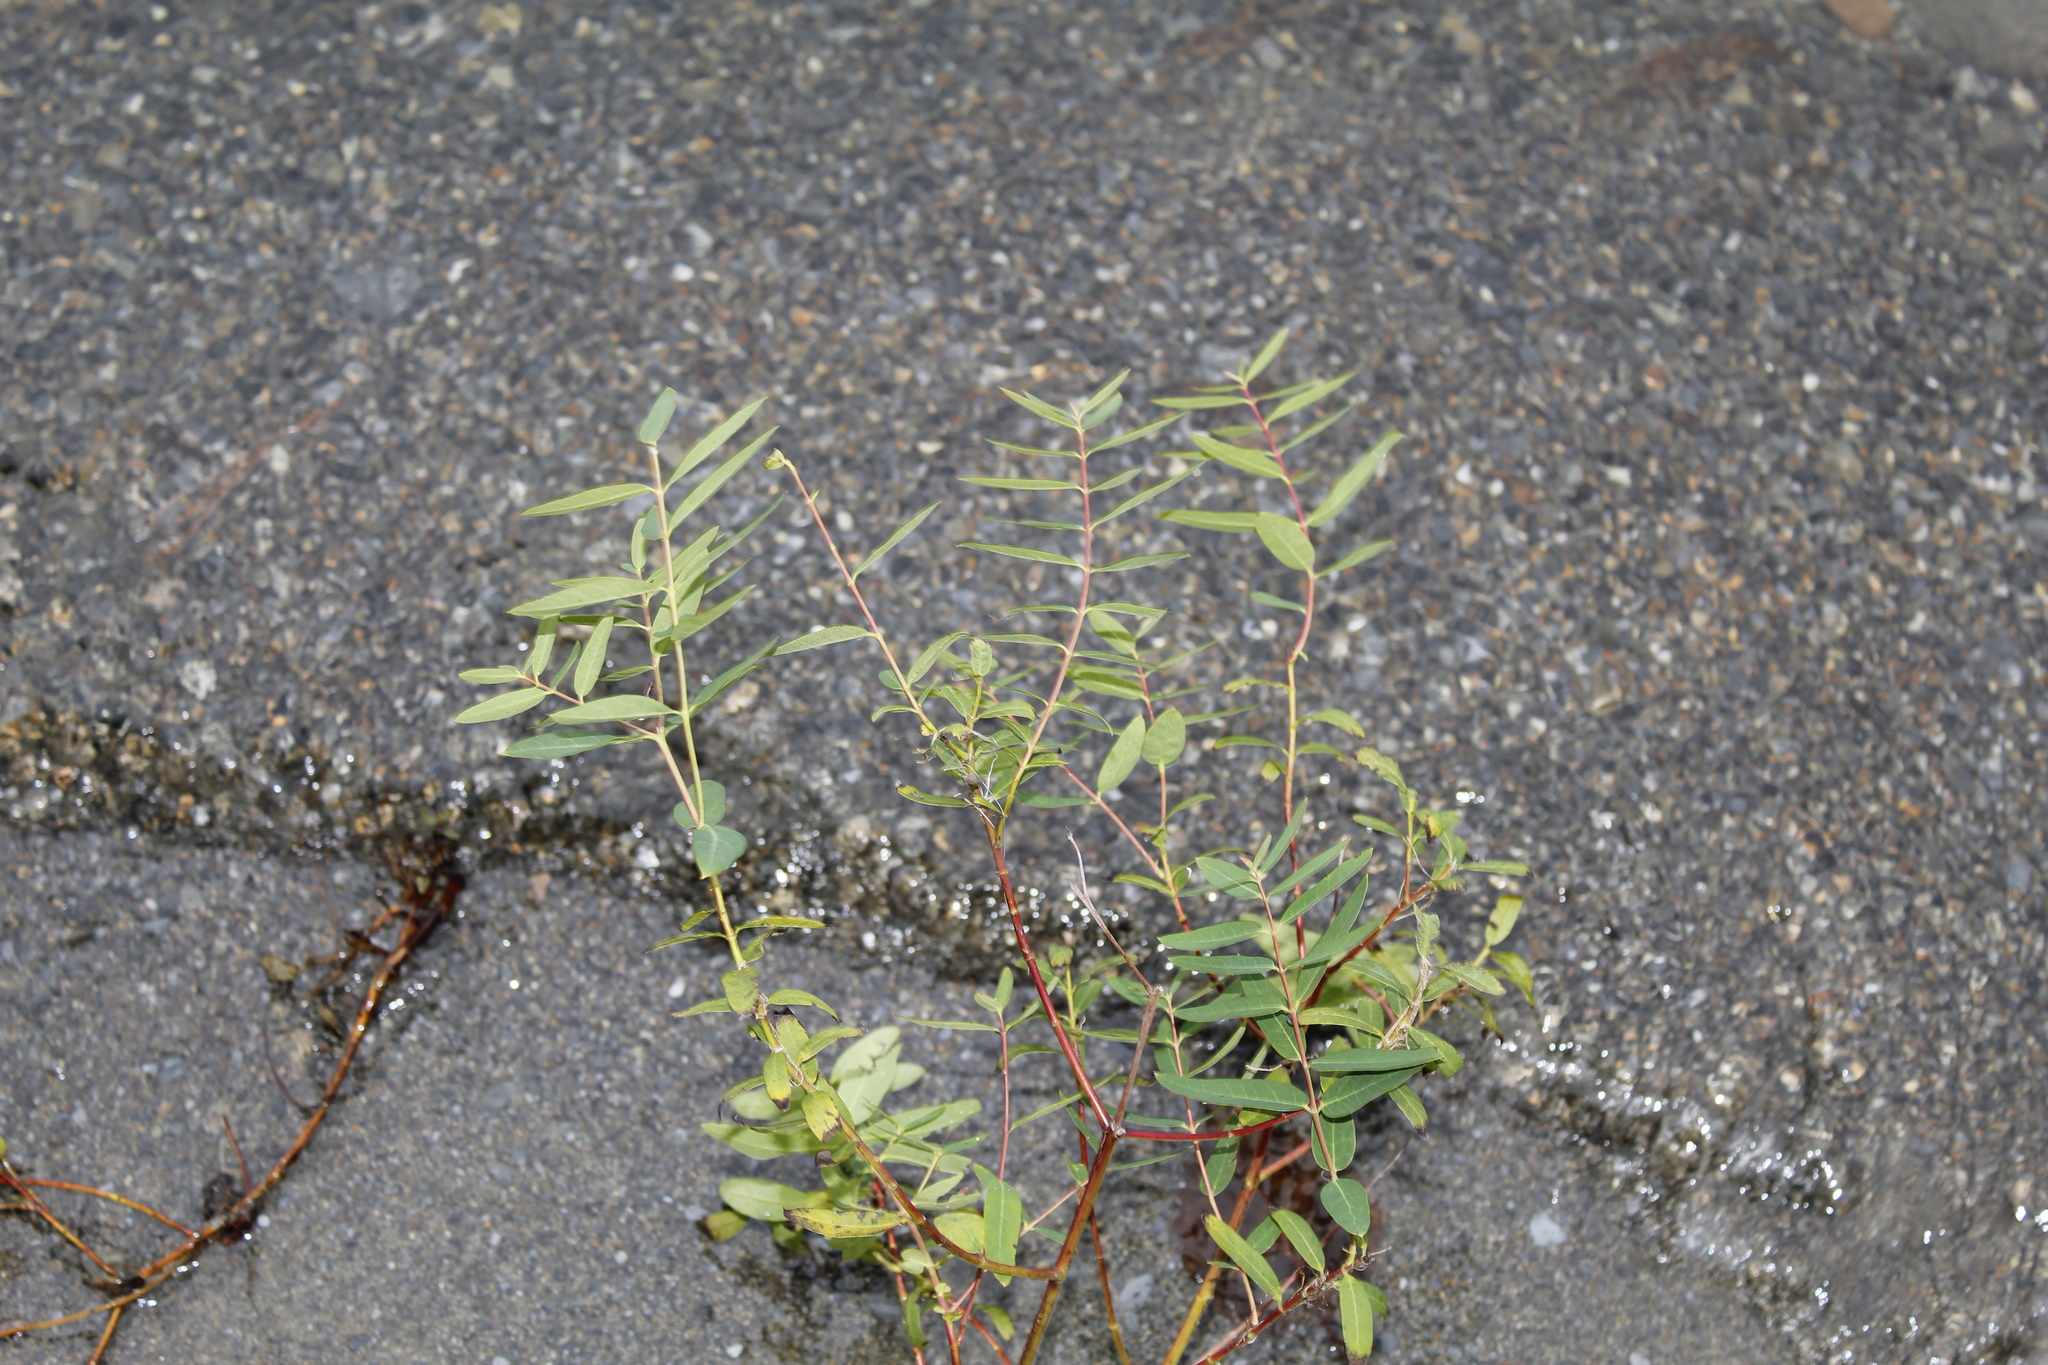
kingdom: Plantae
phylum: Tracheophyta
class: Magnoliopsida
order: Gentianales
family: Apocynaceae
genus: Apocynum
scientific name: Apocynum cannabinum
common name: Hemp dogbane
